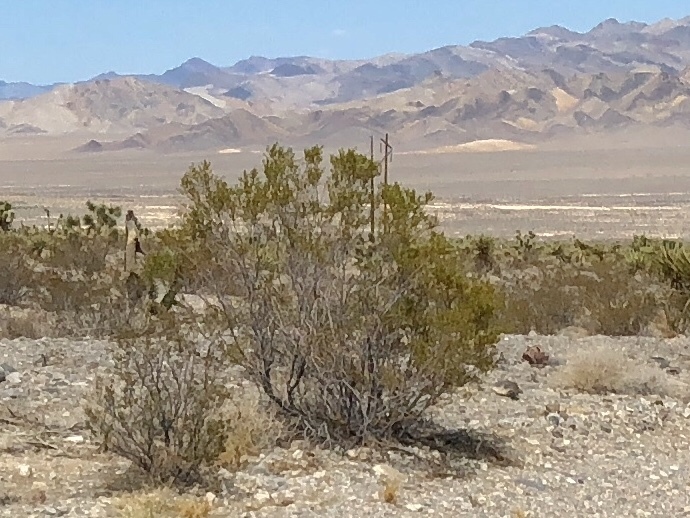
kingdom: Plantae
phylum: Tracheophyta
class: Magnoliopsida
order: Zygophyllales
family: Zygophyllaceae
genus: Larrea
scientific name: Larrea tridentata
